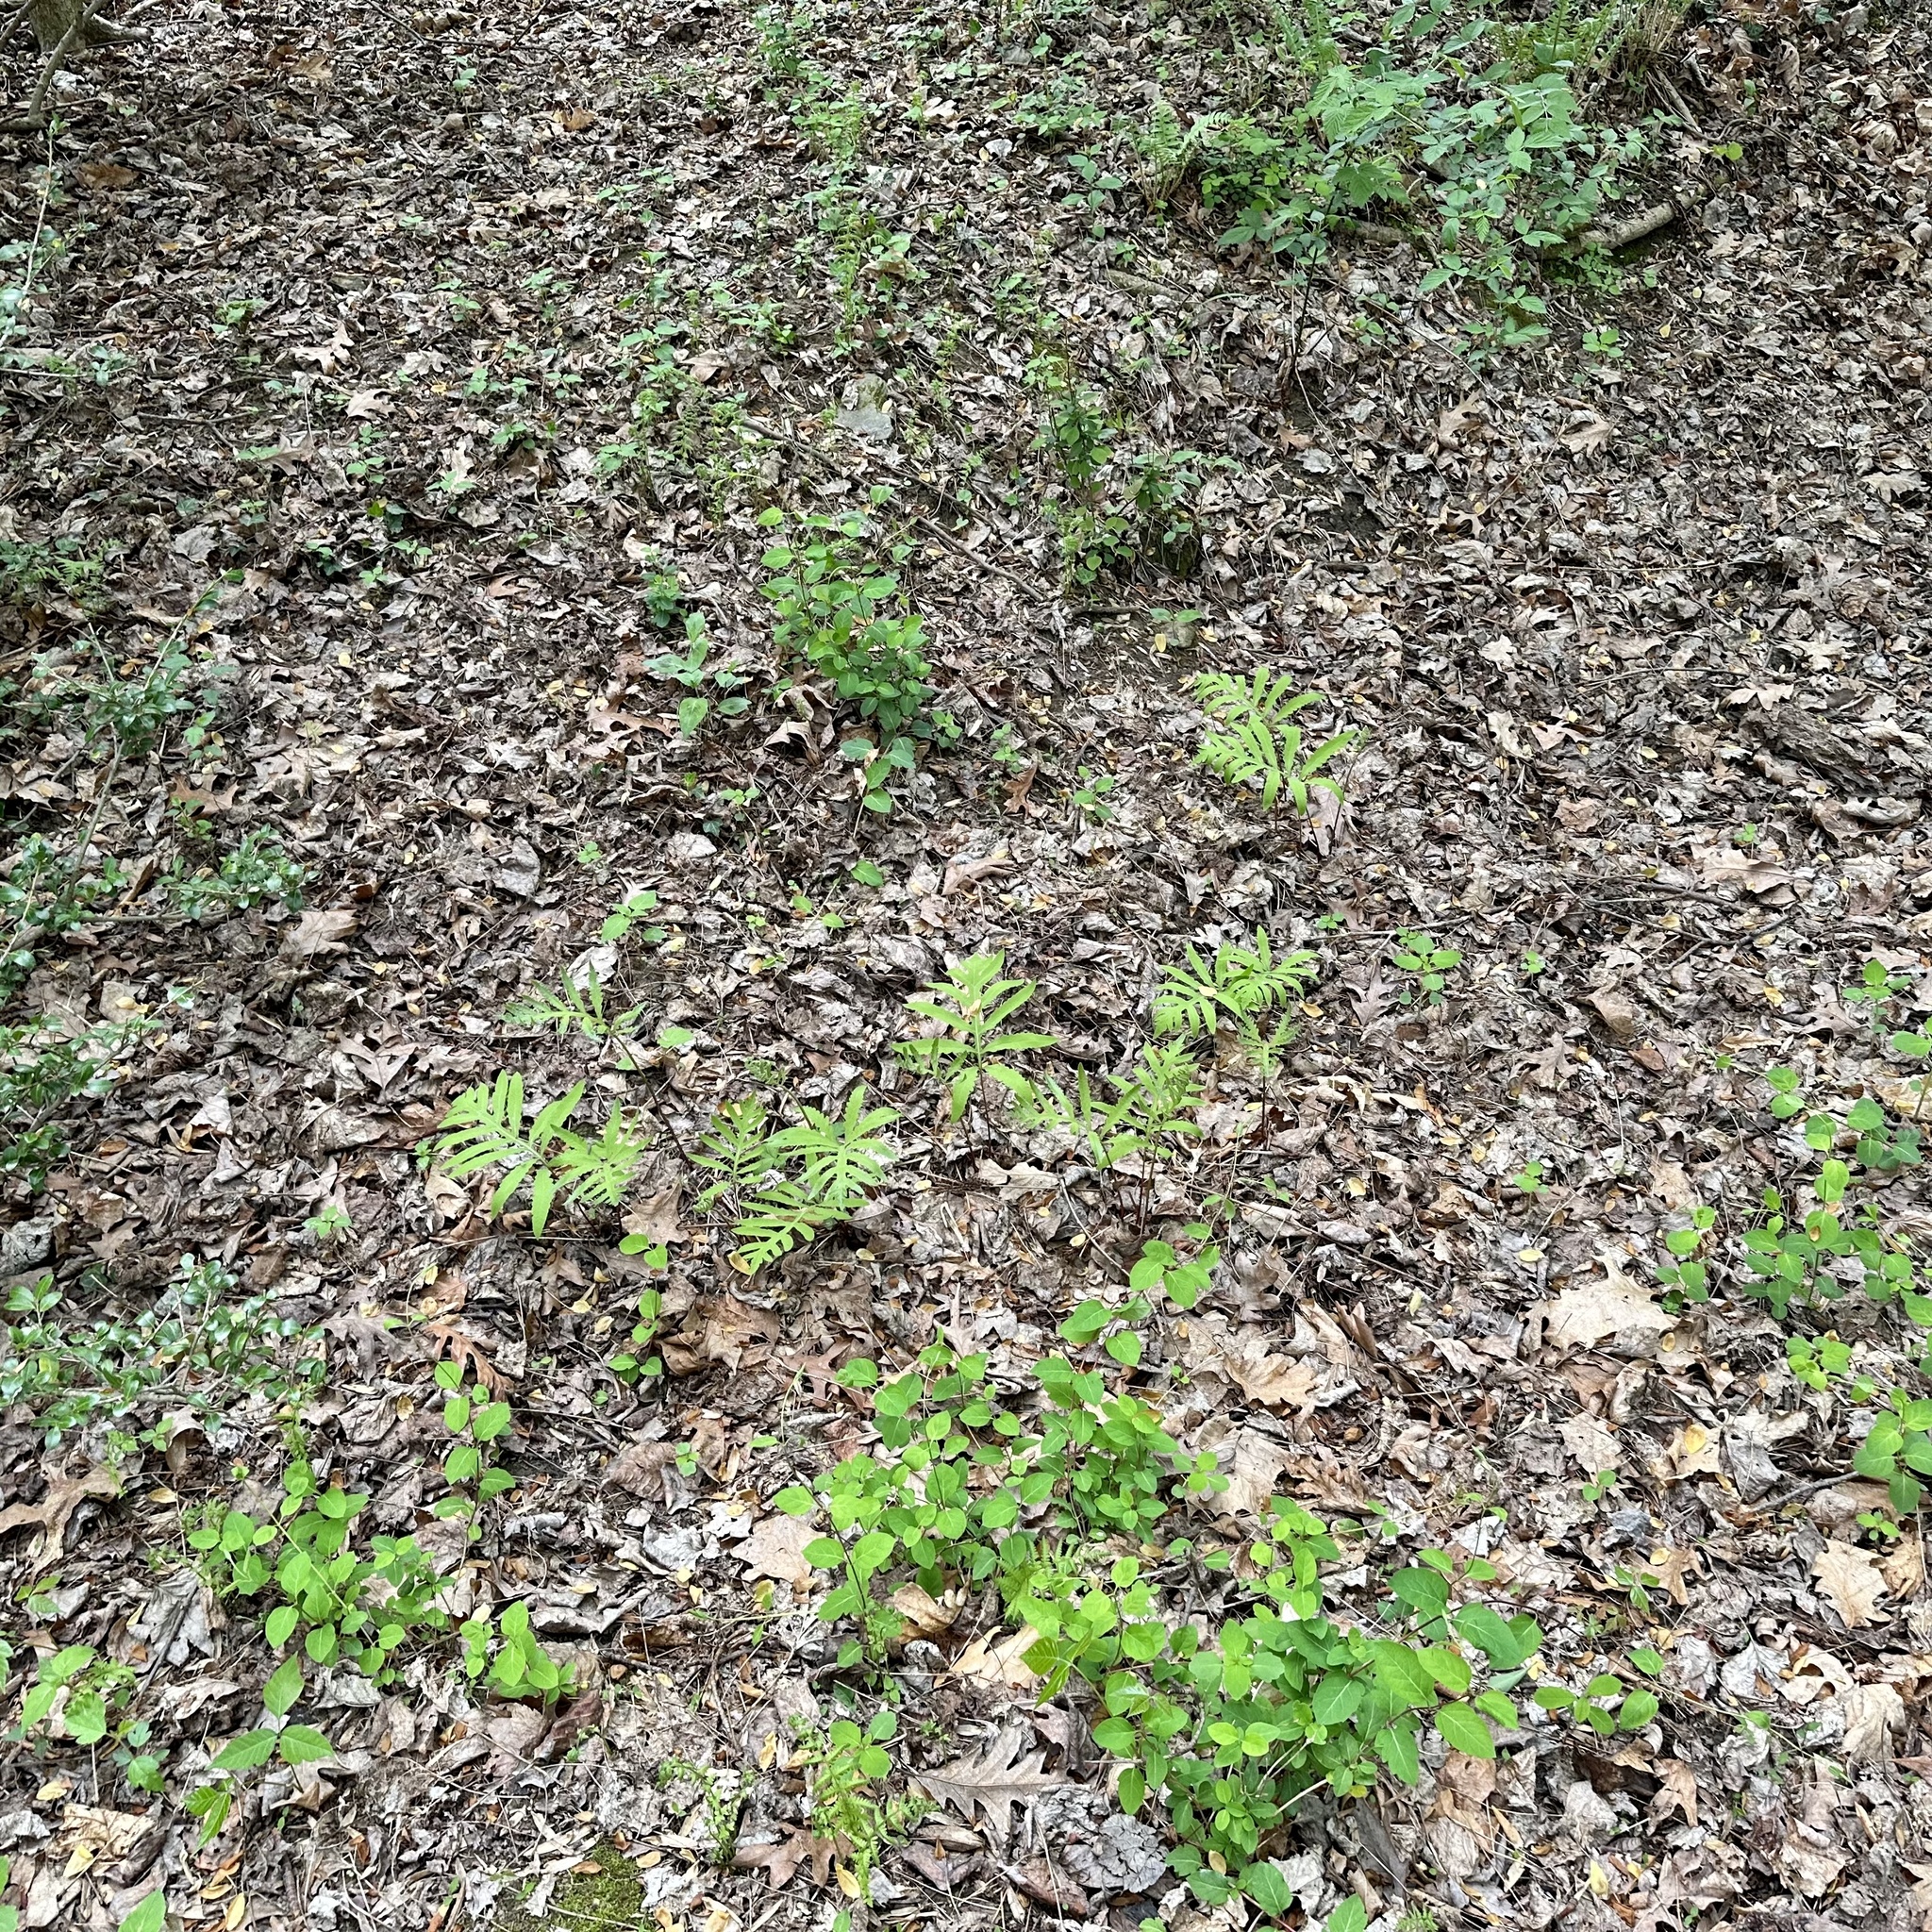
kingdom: Plantae
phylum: Tracheophyta
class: Polypodiopsida
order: Polypodiales
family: Onocleaceae
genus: Onoclea
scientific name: Onoclea sensibilis
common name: Sensitive fern
